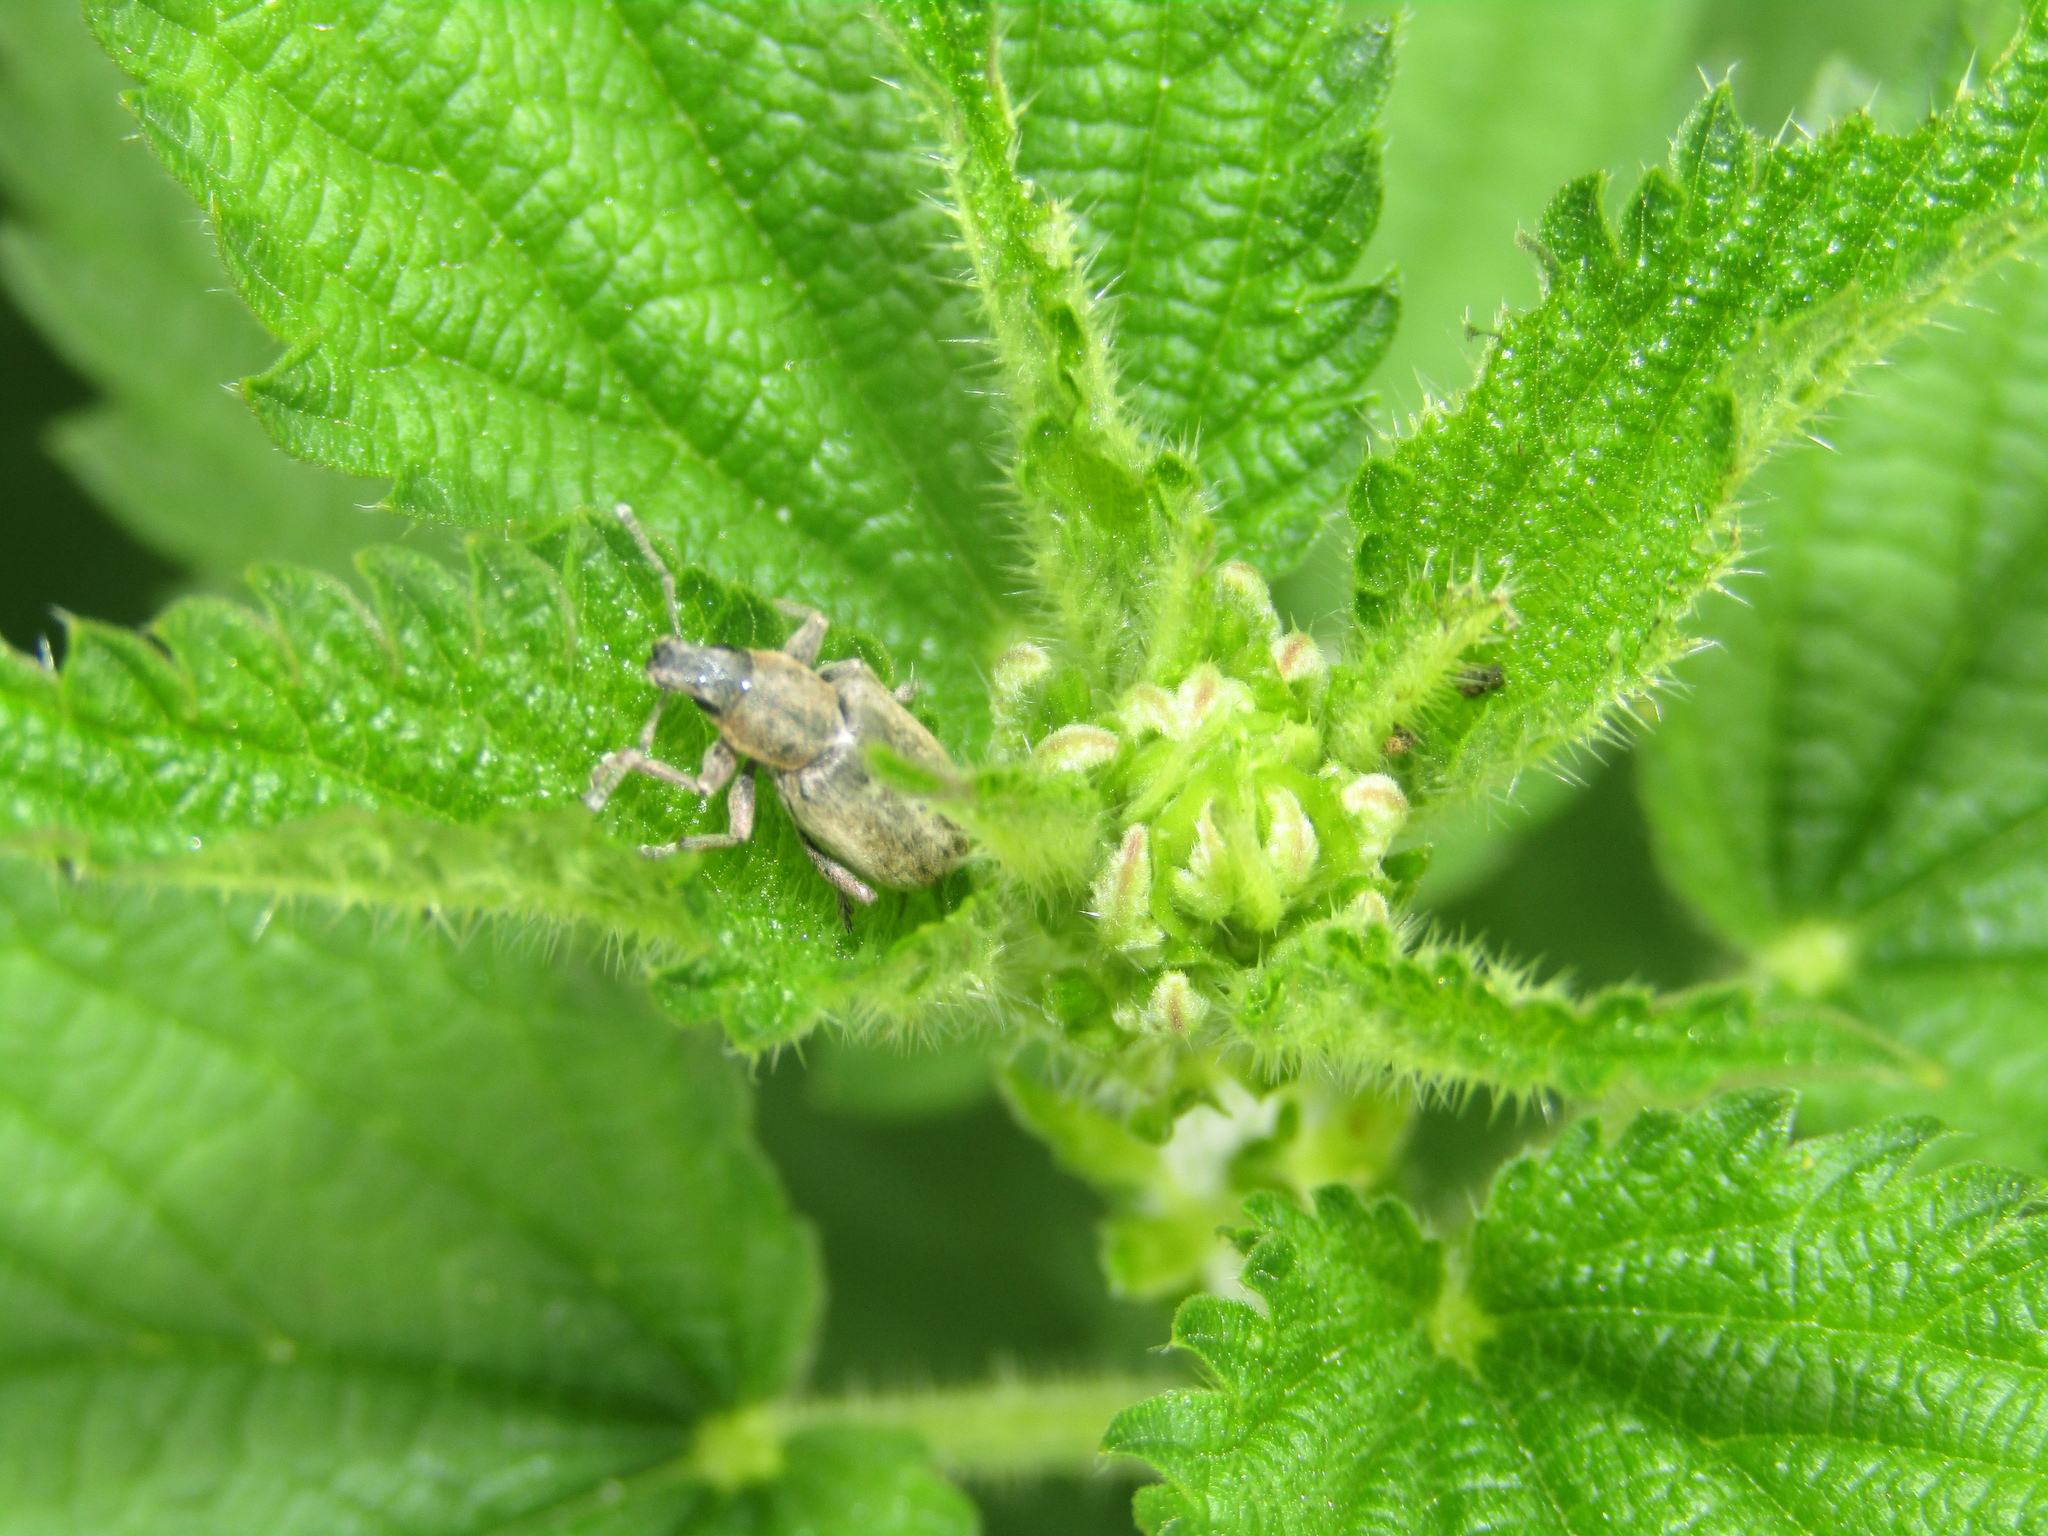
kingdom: Animalia
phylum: Arthropoda
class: Insecta
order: Coleoptera
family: Curculionidae
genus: Tanymecus
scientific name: Tanymecus palliatus
